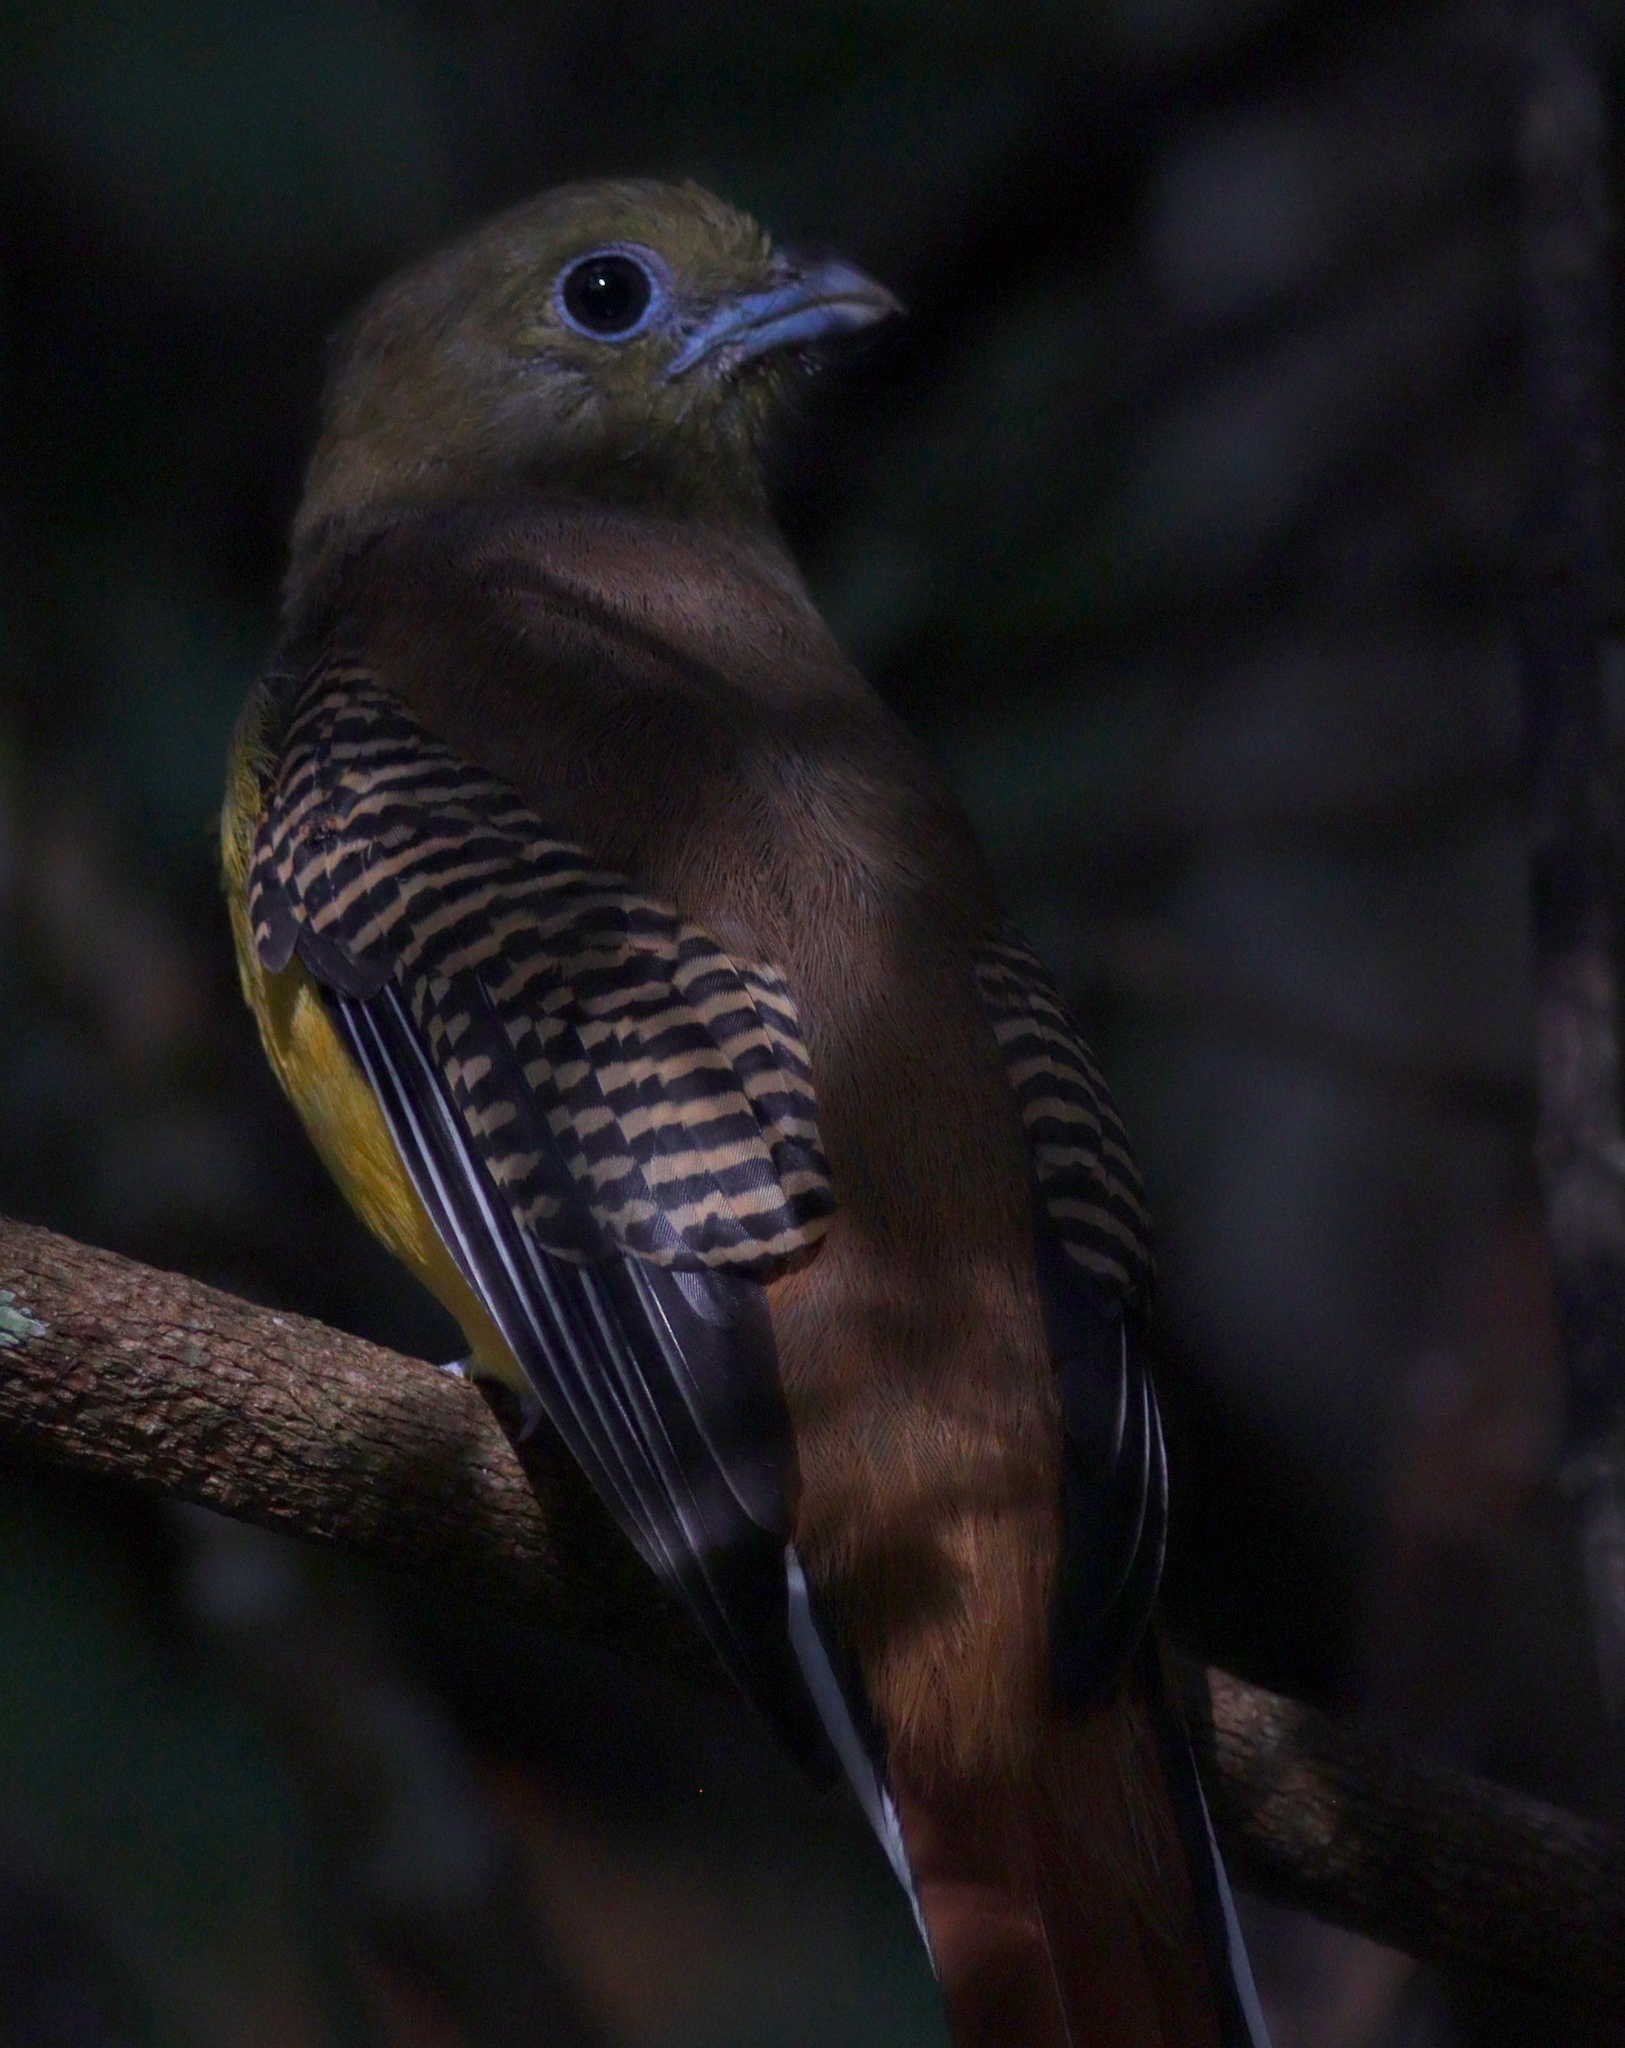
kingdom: Animalia
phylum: Chordata
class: Aves
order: Trogoniformes
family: Trogonidae
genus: Harpactes
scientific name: Harpactes oreskios
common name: Orange-breasted trogon
